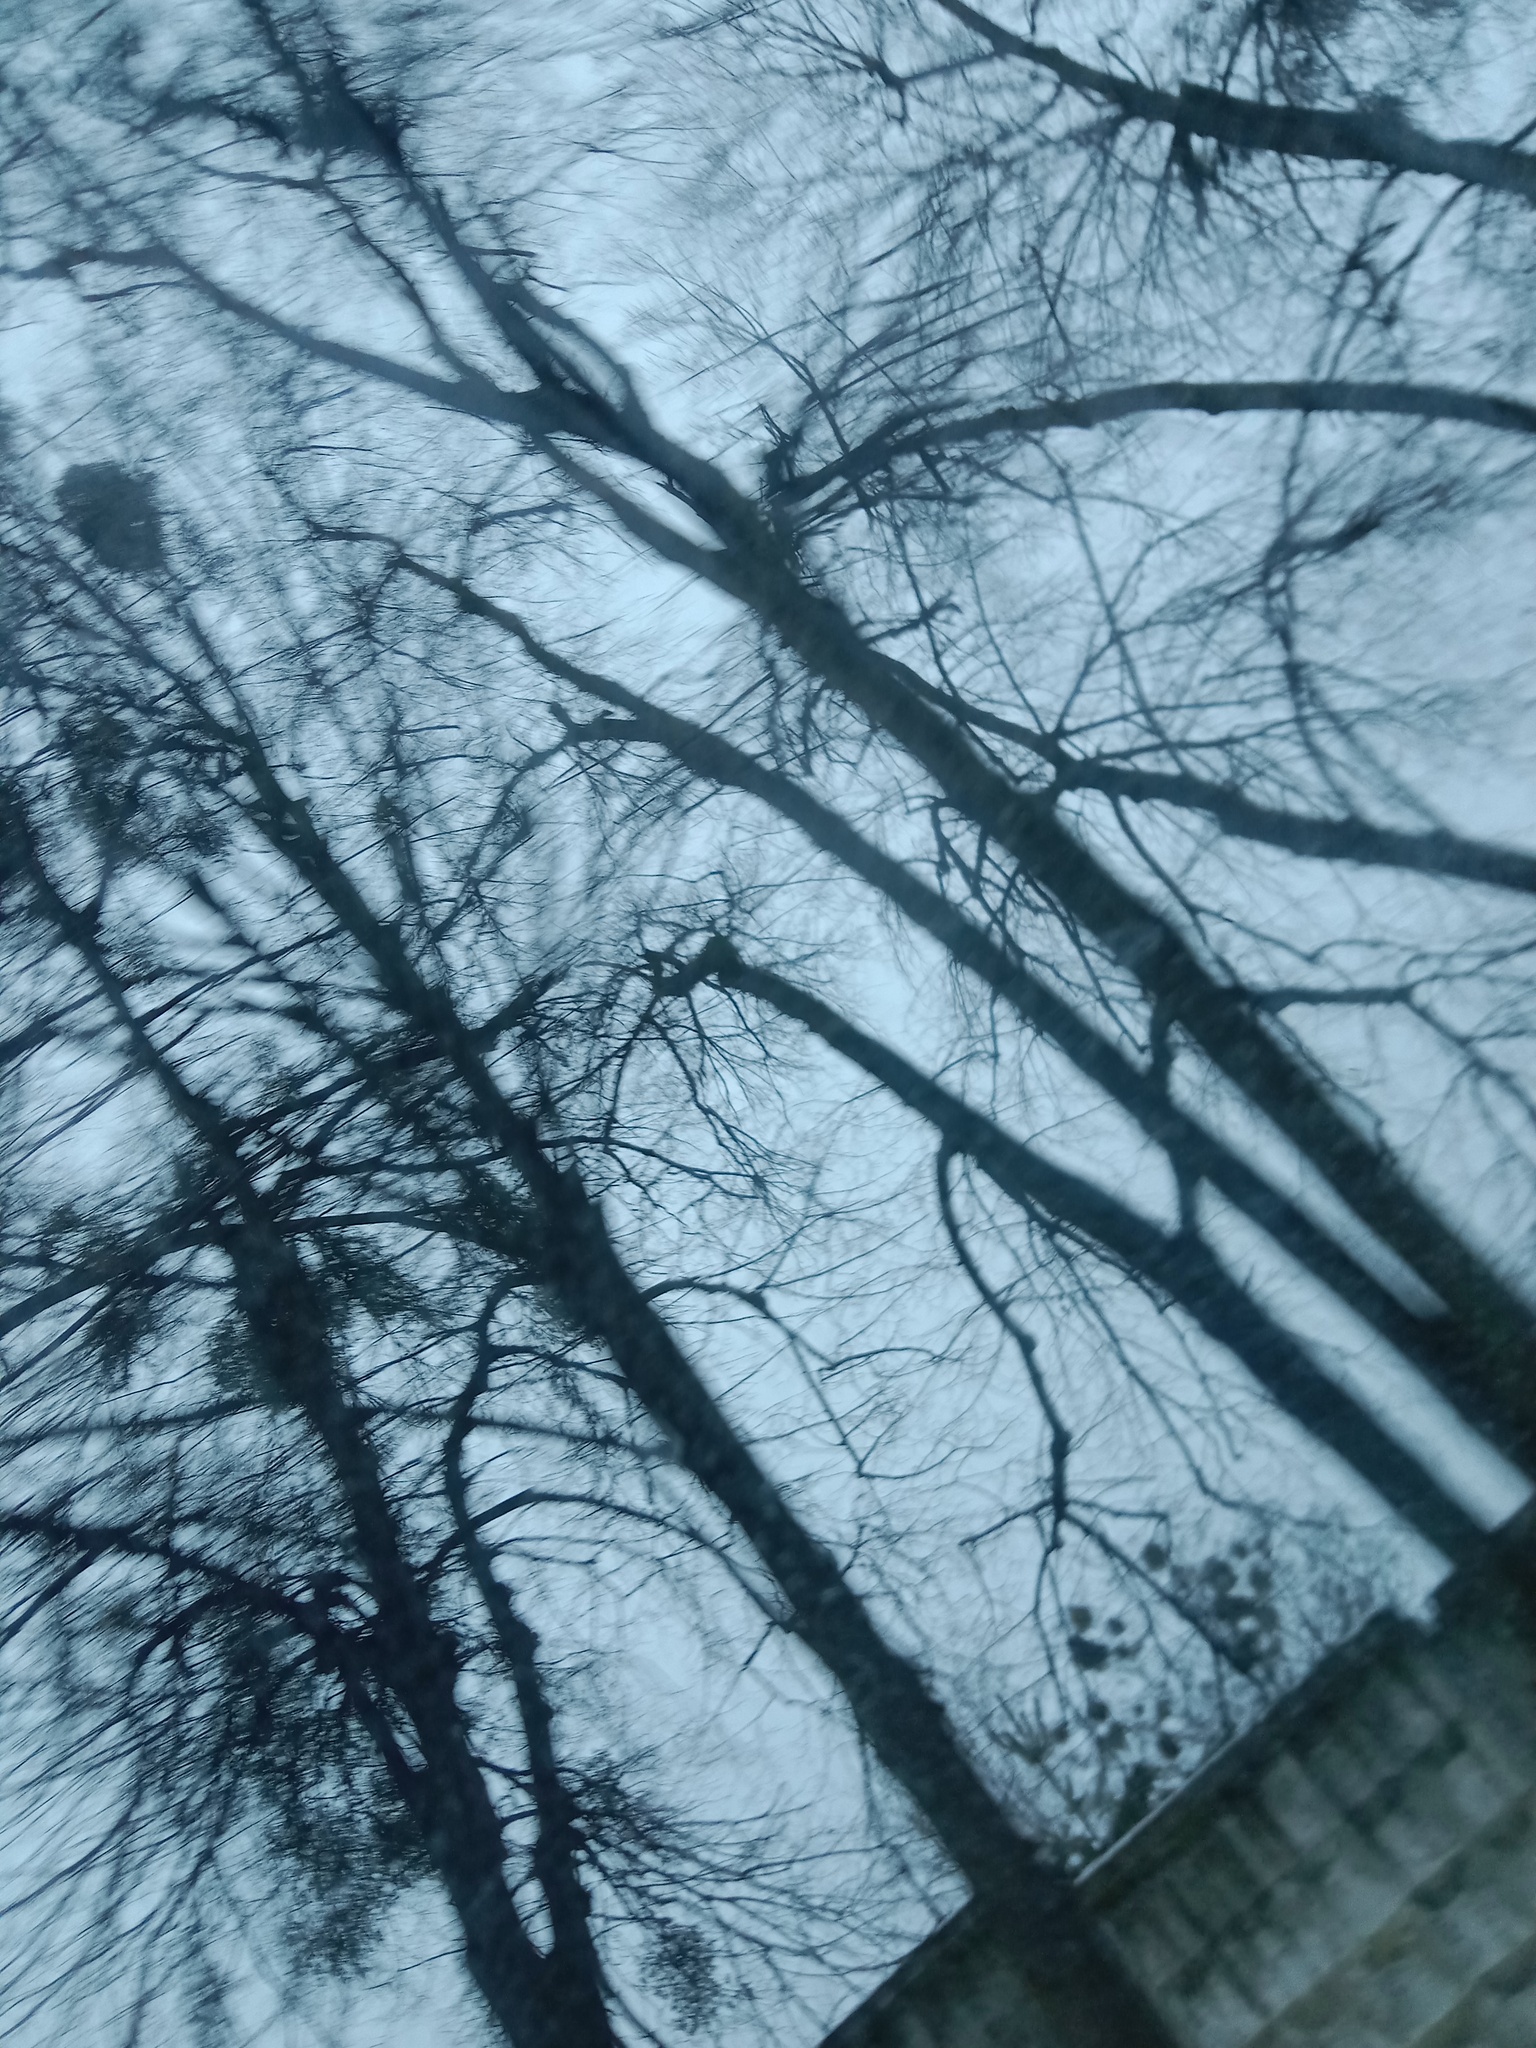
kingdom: Plantae
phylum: Tracheophyta
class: Magnoliopsida
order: Santalales
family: Viscaceae
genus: Viscum
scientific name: Viscum album
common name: Mistletoe
